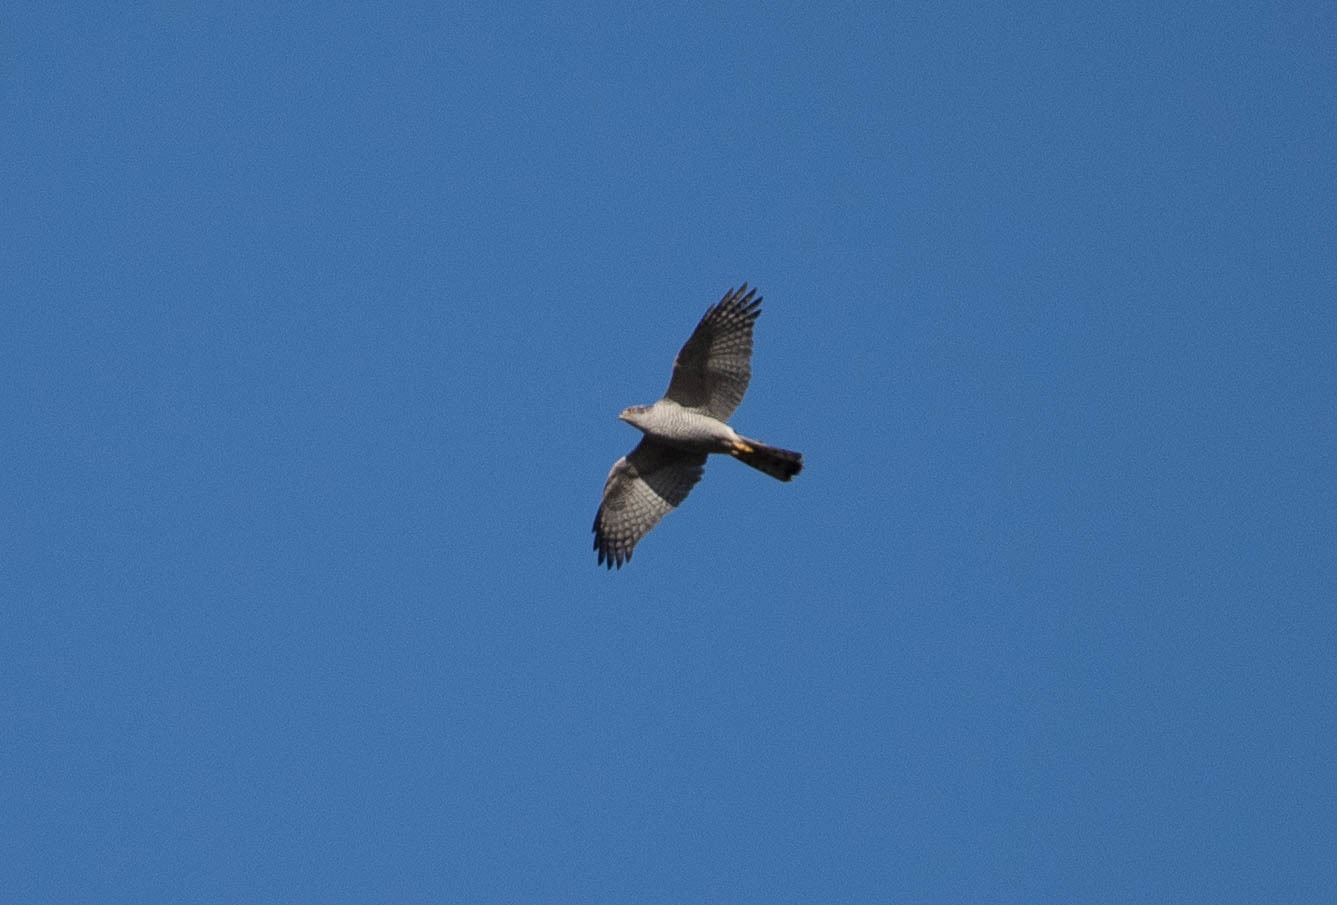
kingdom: Animalia
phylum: Chordata
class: Aves
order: Accipitriformes
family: Accipitridae
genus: Accipiter
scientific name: Accipiter gentilis
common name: Northern goshawk
